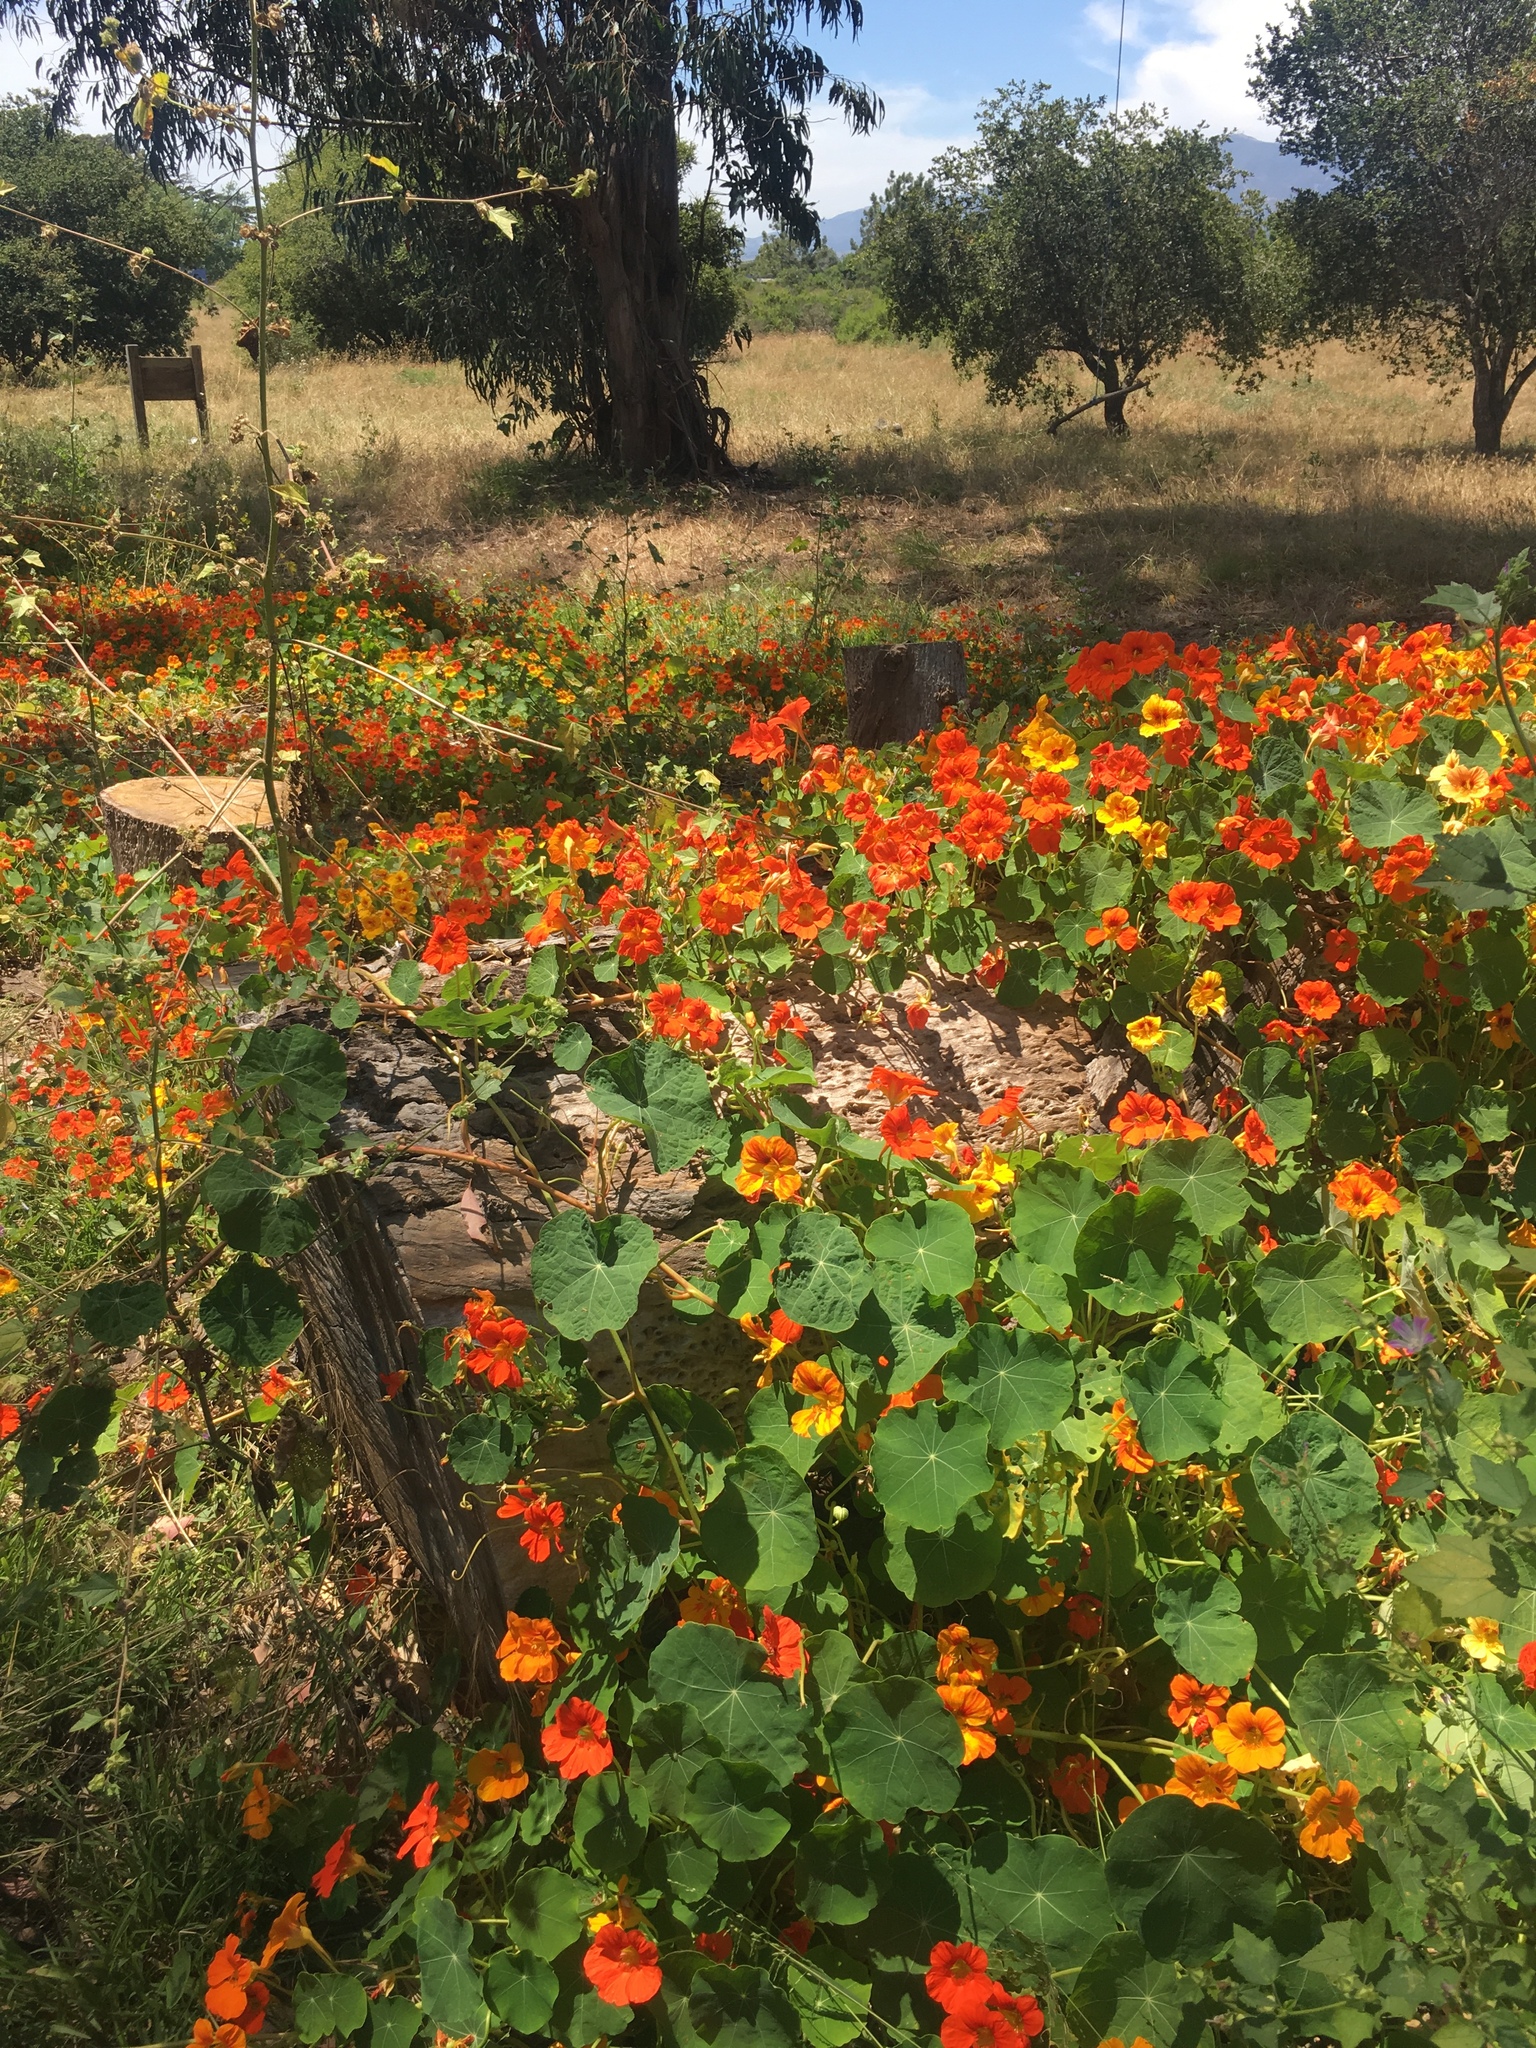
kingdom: Plantae
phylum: Tracheophyta
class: Magnoliopsida
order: Brassicales
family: Tropaeolaceae
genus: Tropaeolum
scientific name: Tropaeolum majus
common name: Nasturtium
